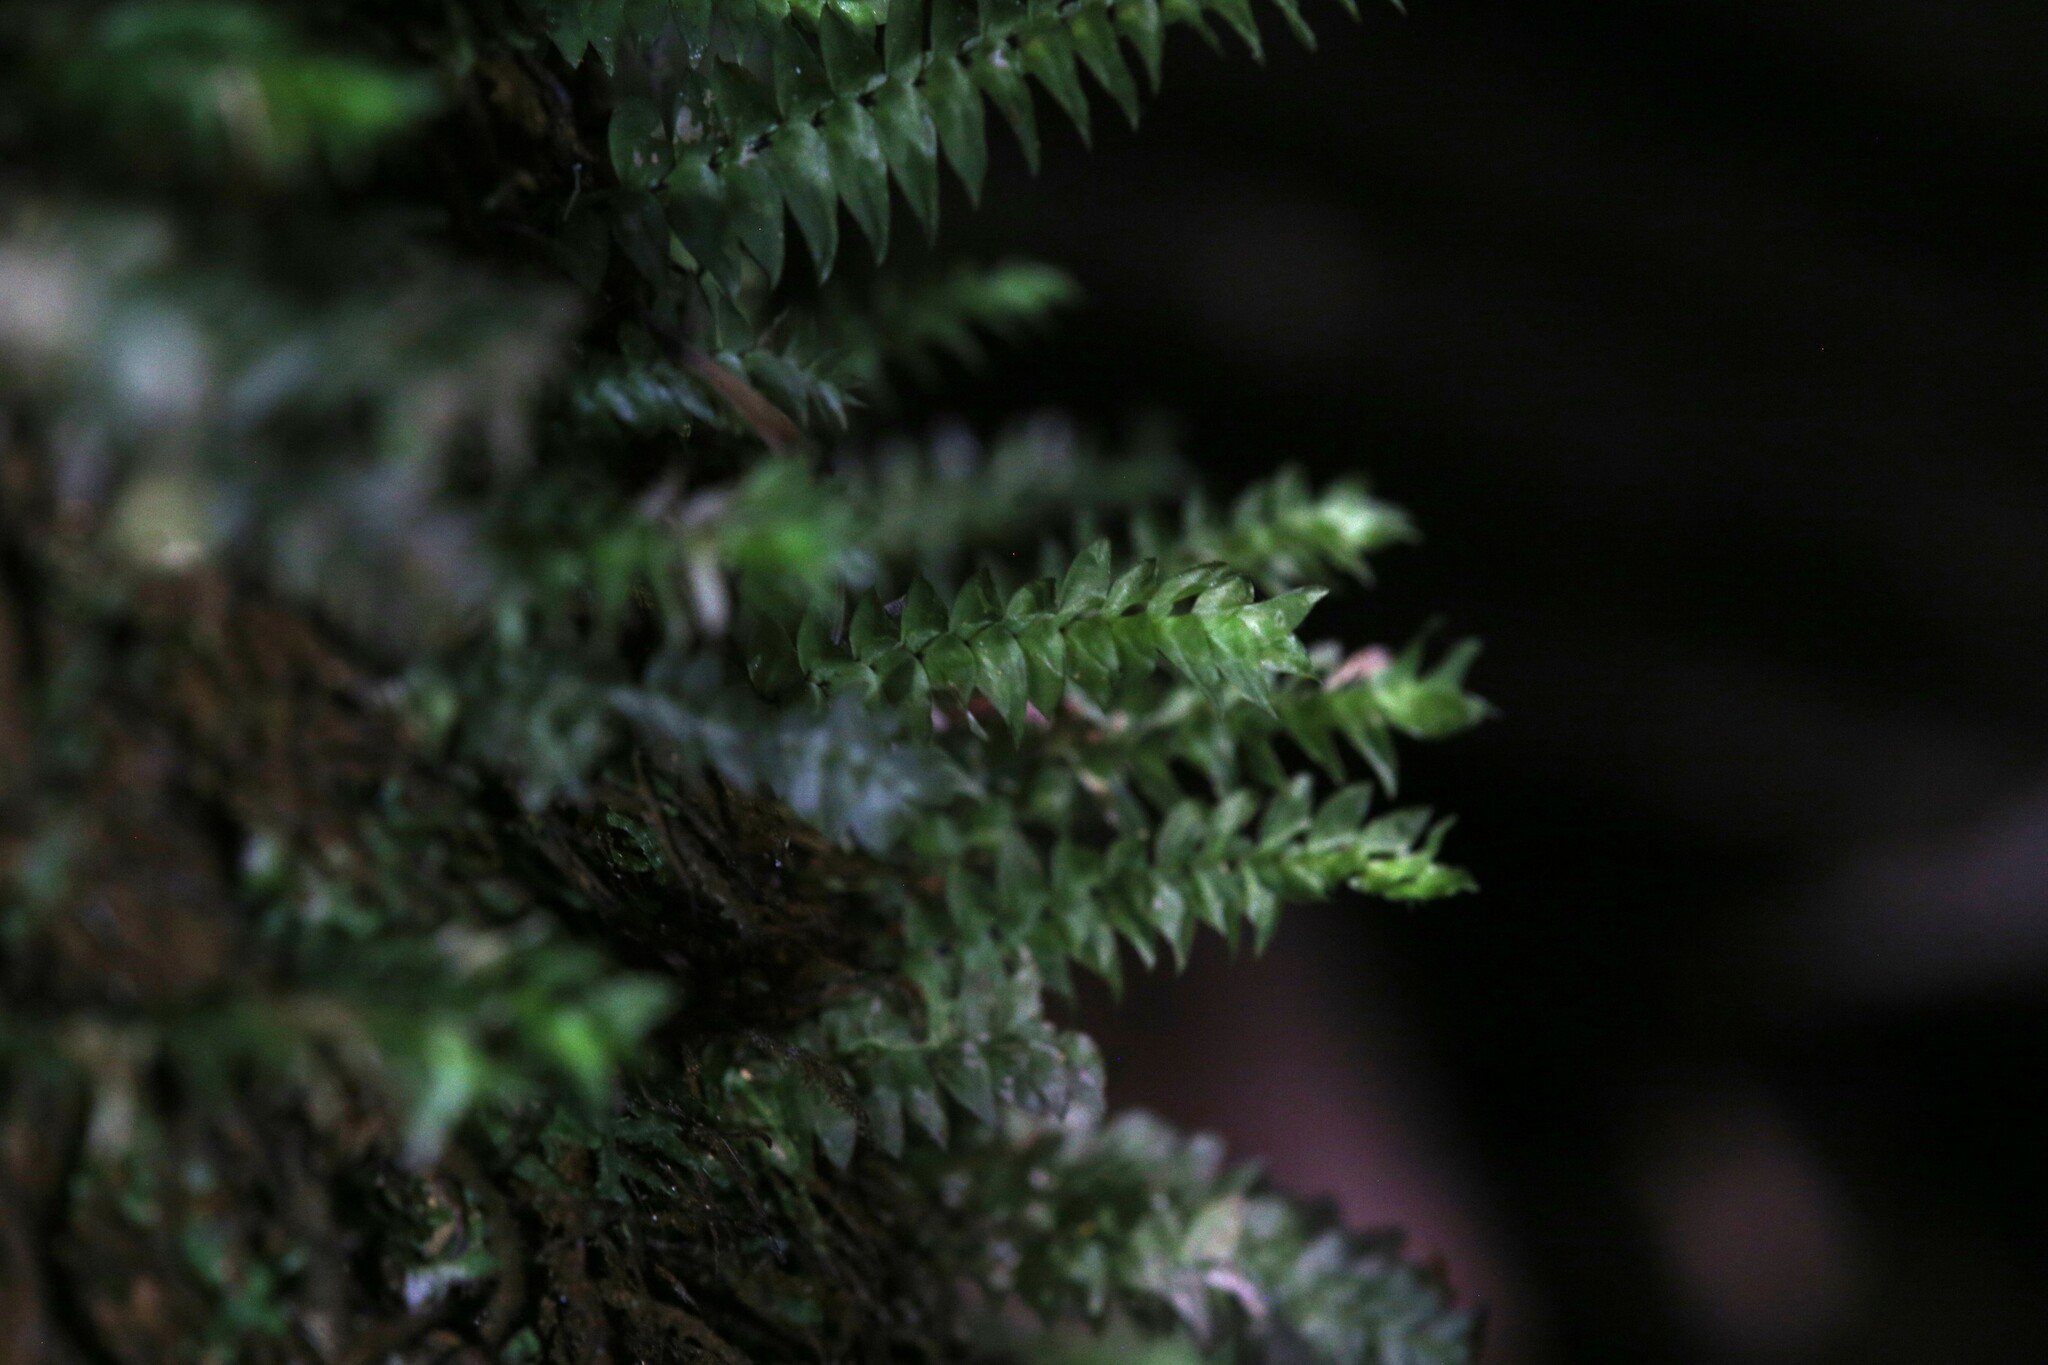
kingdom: Plantae
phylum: Bryophyta
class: Bryopsida
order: Hypopterygiales
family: Hypopterygiaceae
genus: Cyathophorum
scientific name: Cyathophorum bulbosum
